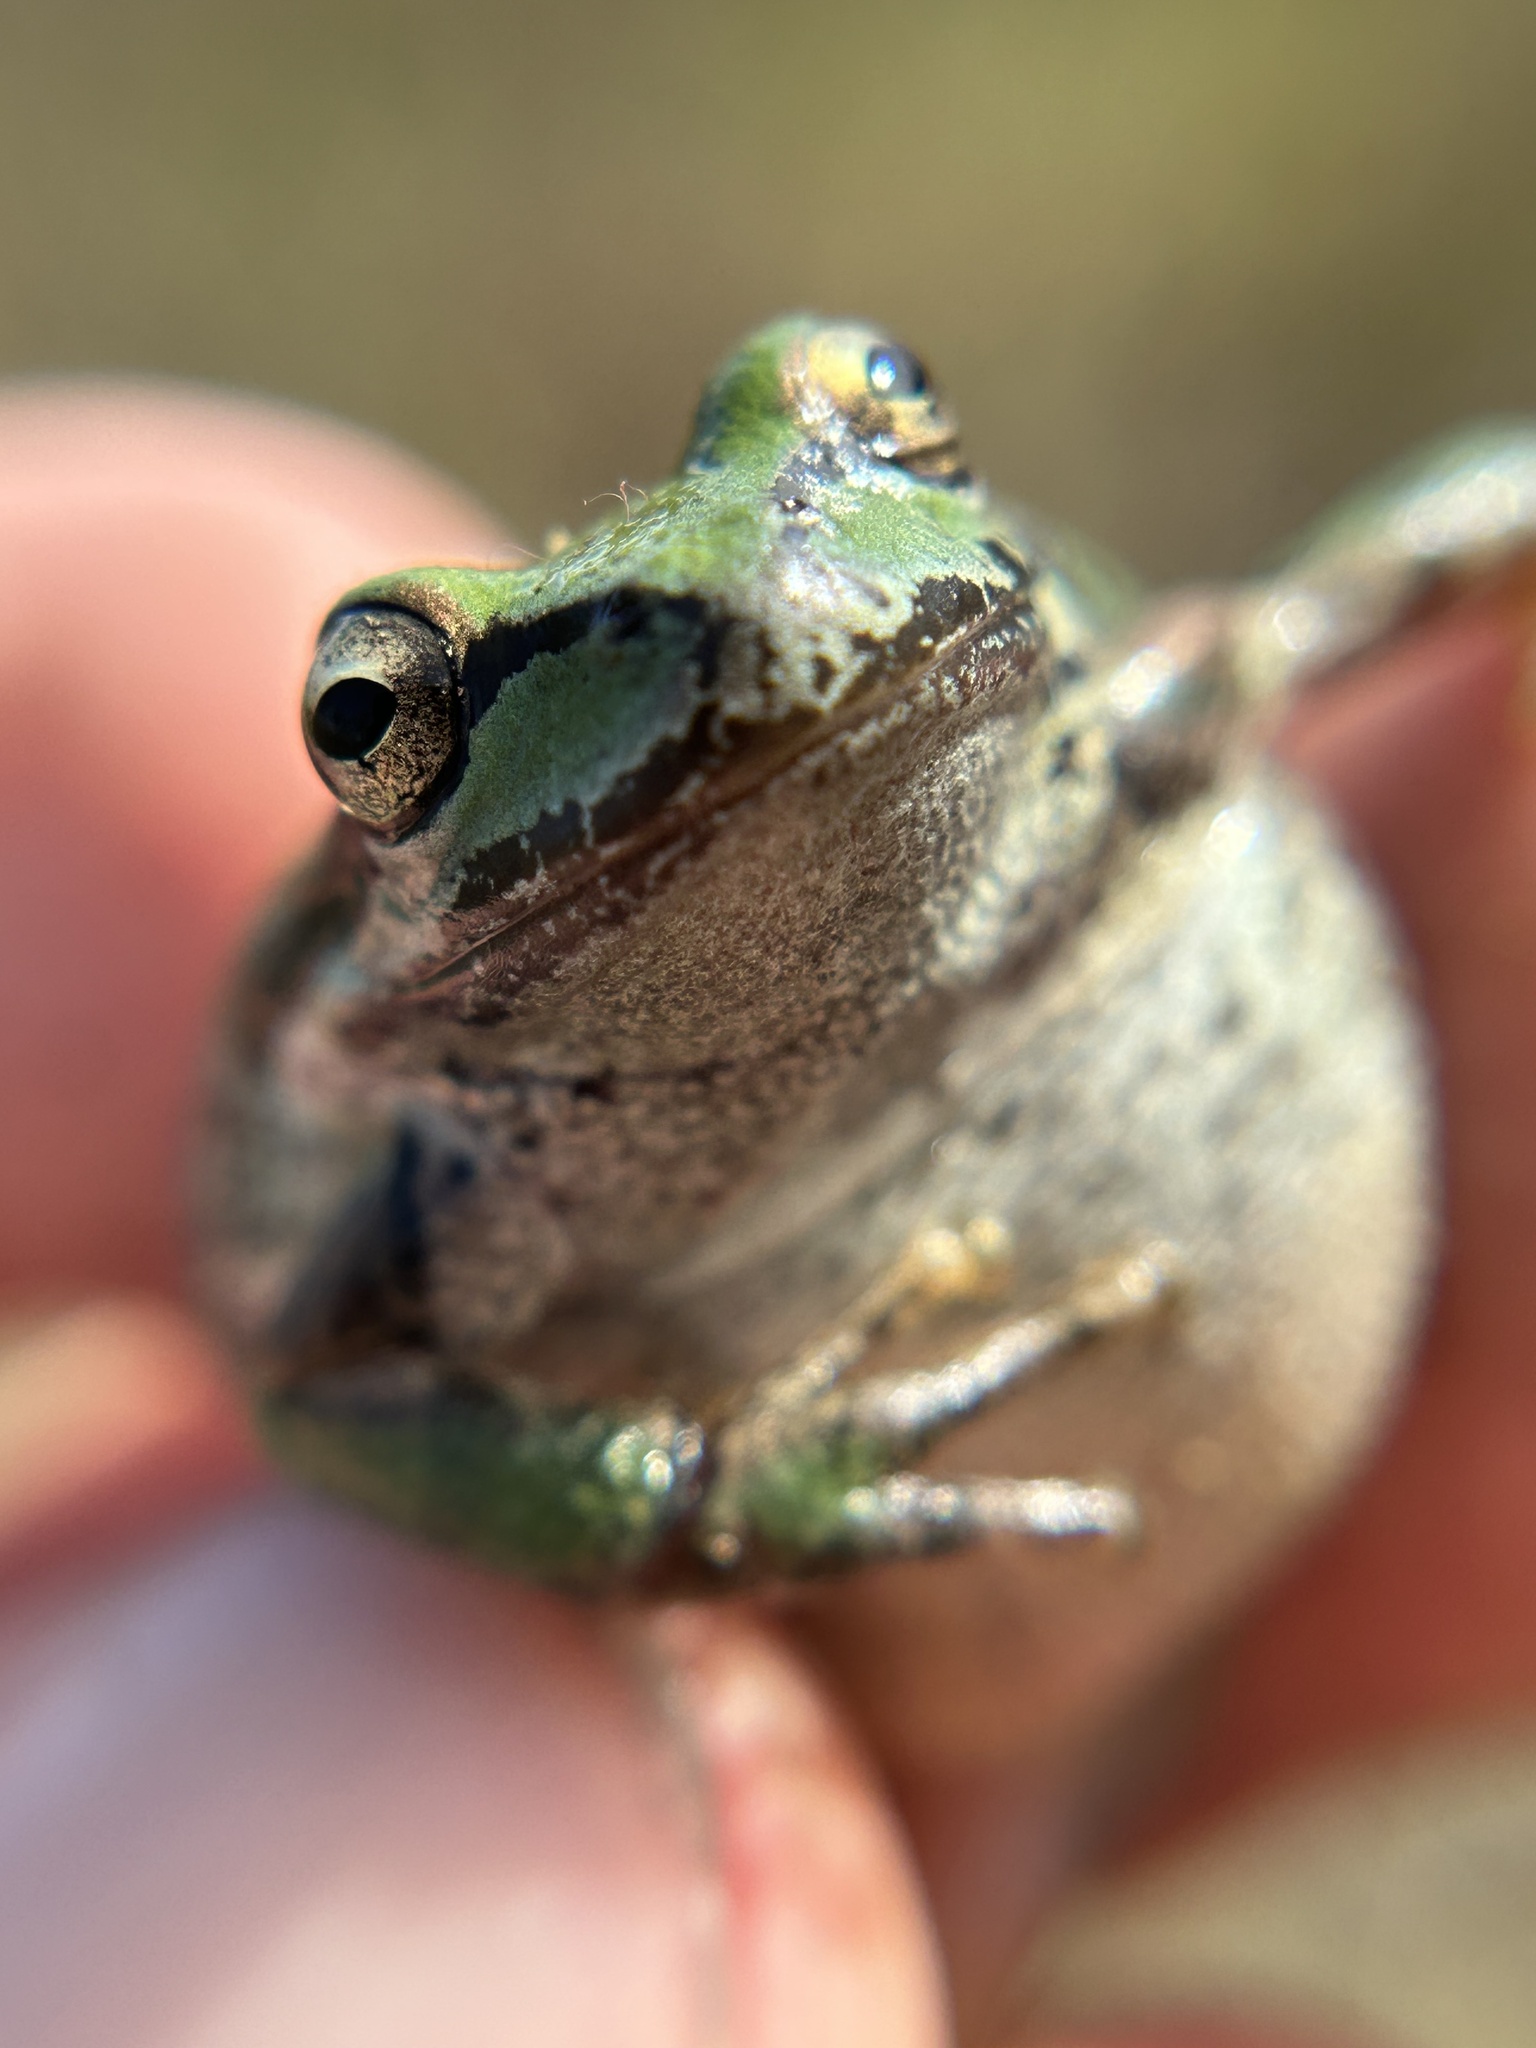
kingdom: Animalia
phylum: Chordata
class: Amphibia
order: Anura
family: Hylidae
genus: Pseudacris
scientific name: Pseudacris regilla
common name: Pacific chorus frog
